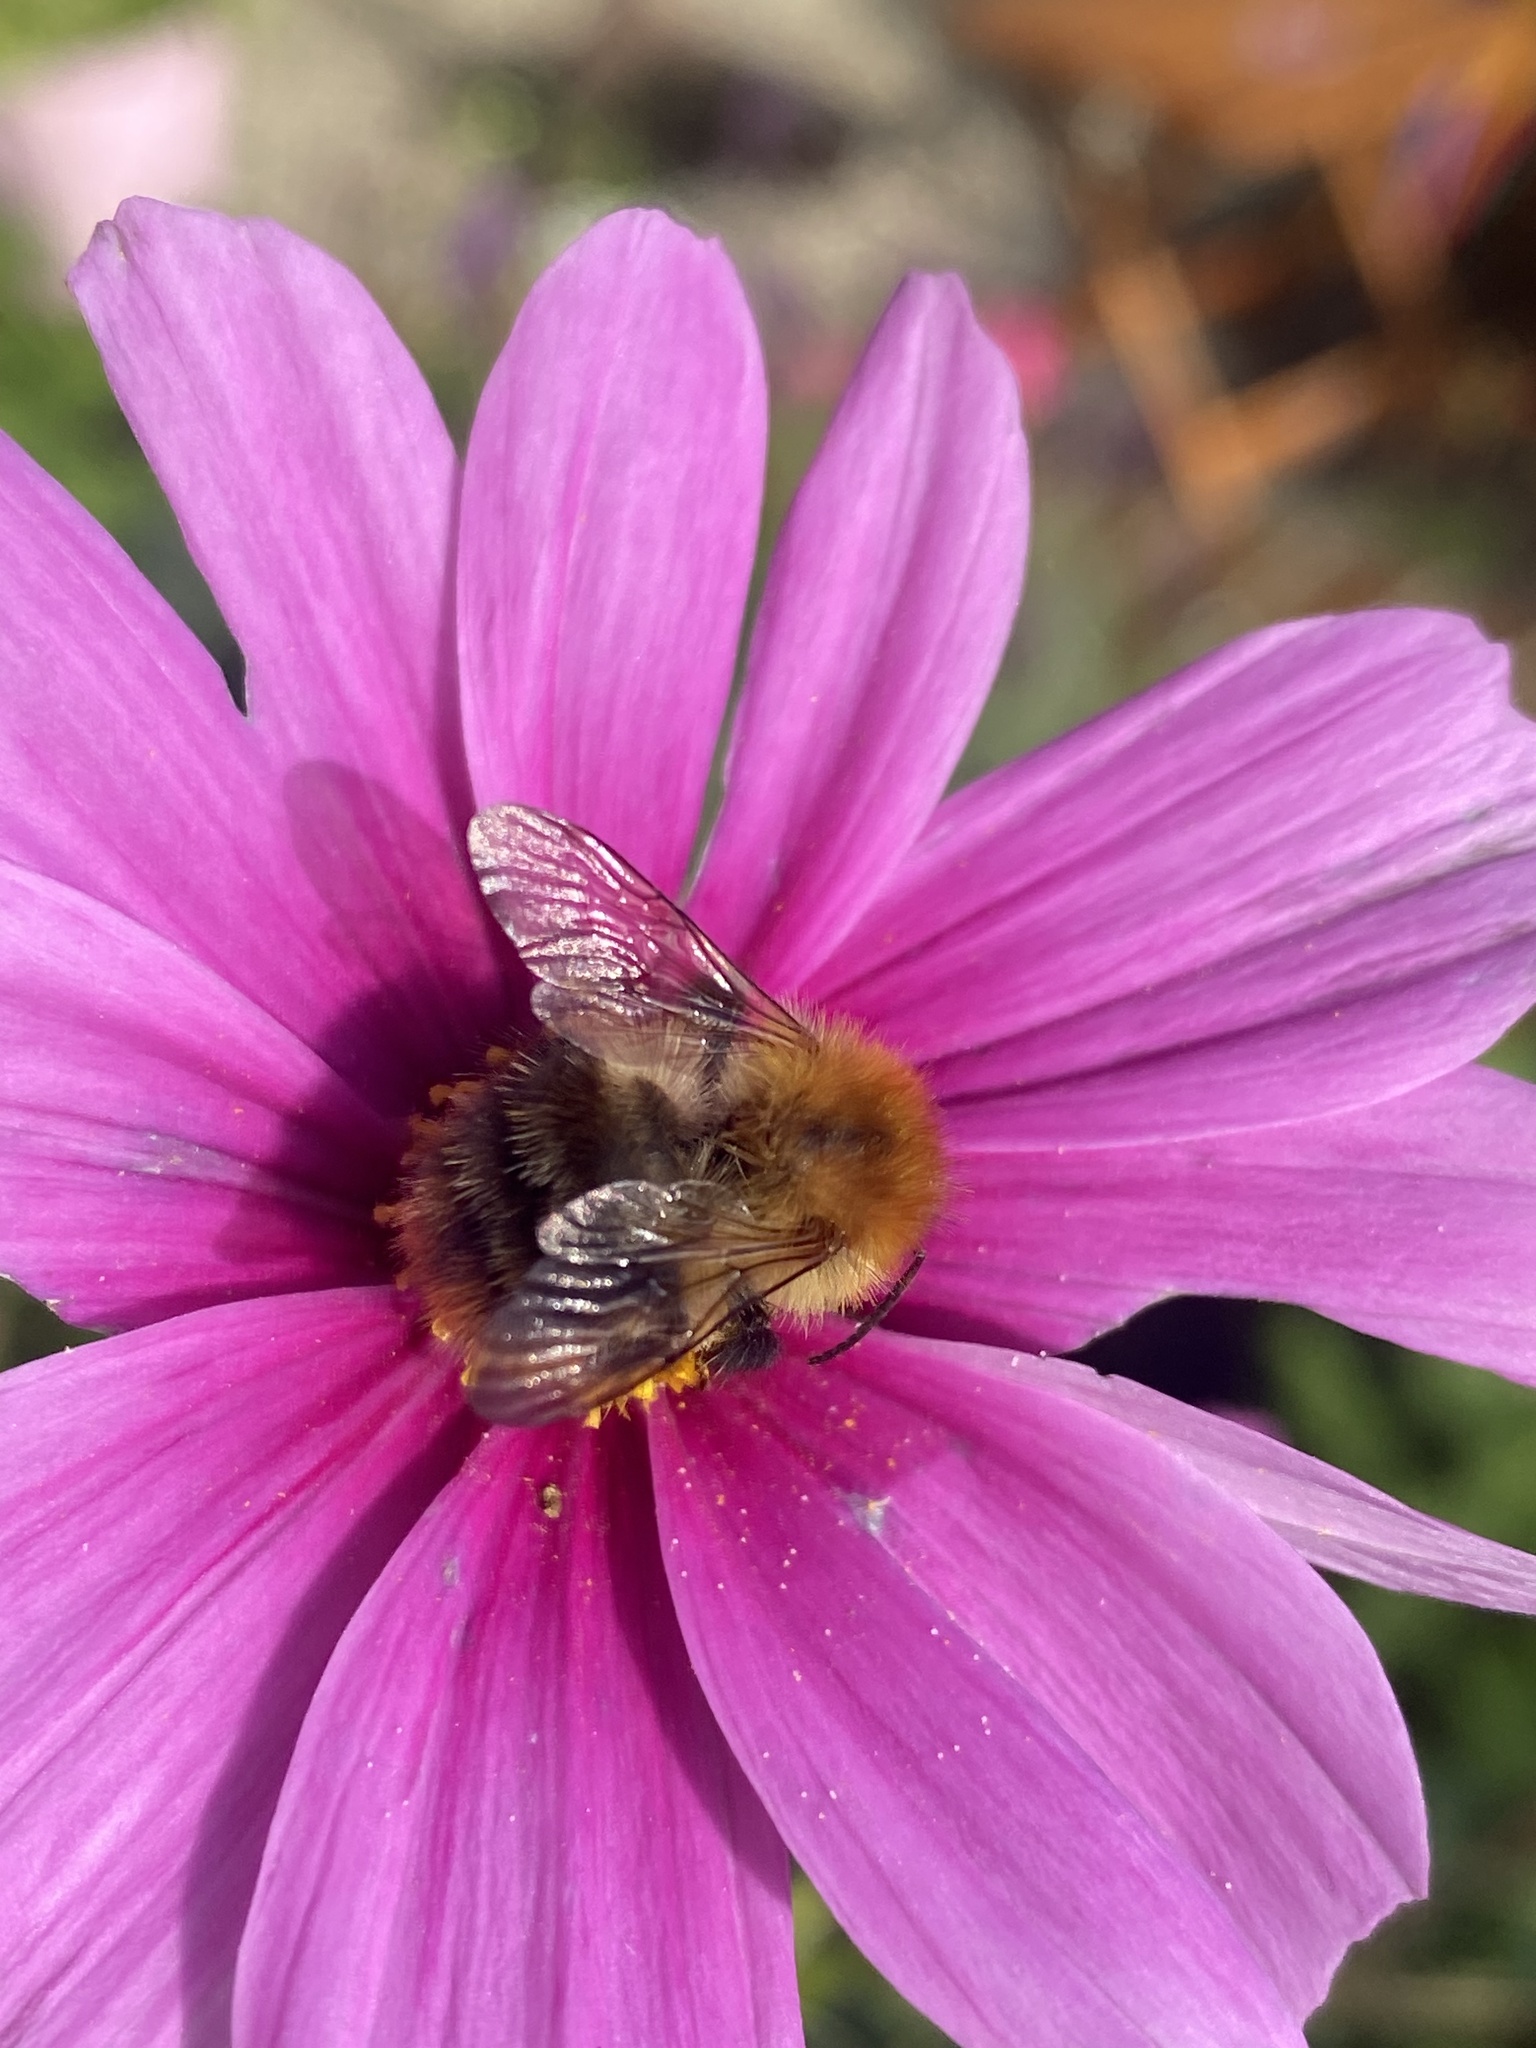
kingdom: Animalia
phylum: Arthropoda
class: Insecta
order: Hymenoptera
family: Apidae
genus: Bombus
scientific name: Bombus pascuorum
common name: Common carder bee
